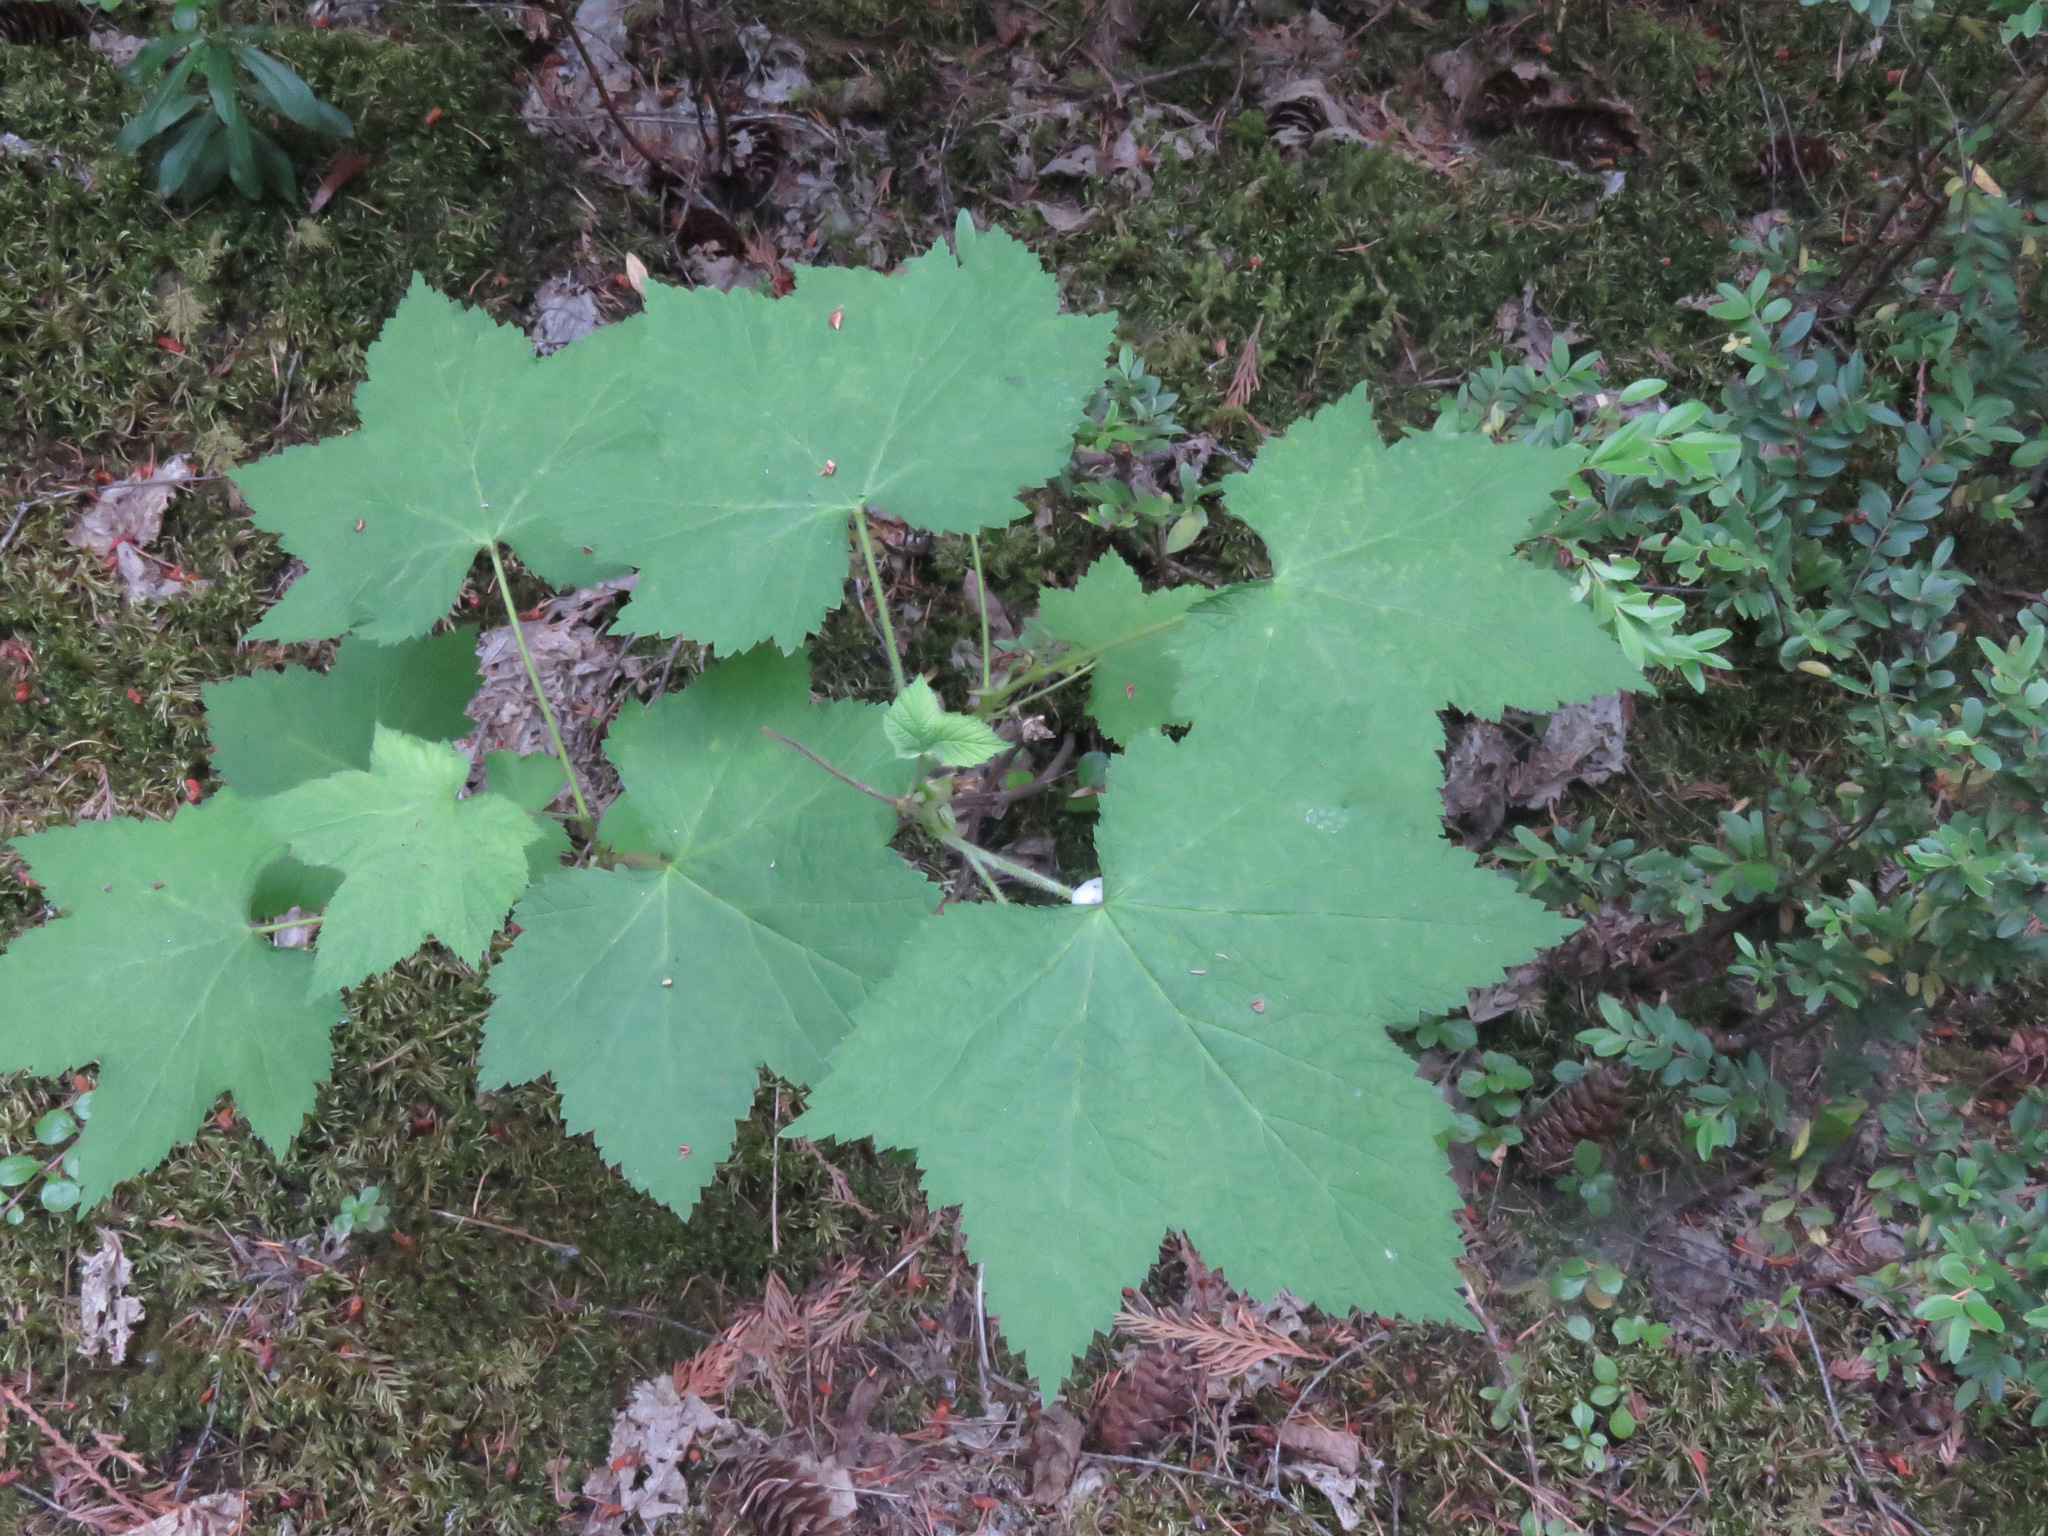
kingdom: Plantae
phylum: Tracheophyta
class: Magnoliopsida
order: Rosales
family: Rosaceae
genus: Rubus
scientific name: Rubus parviflorus
